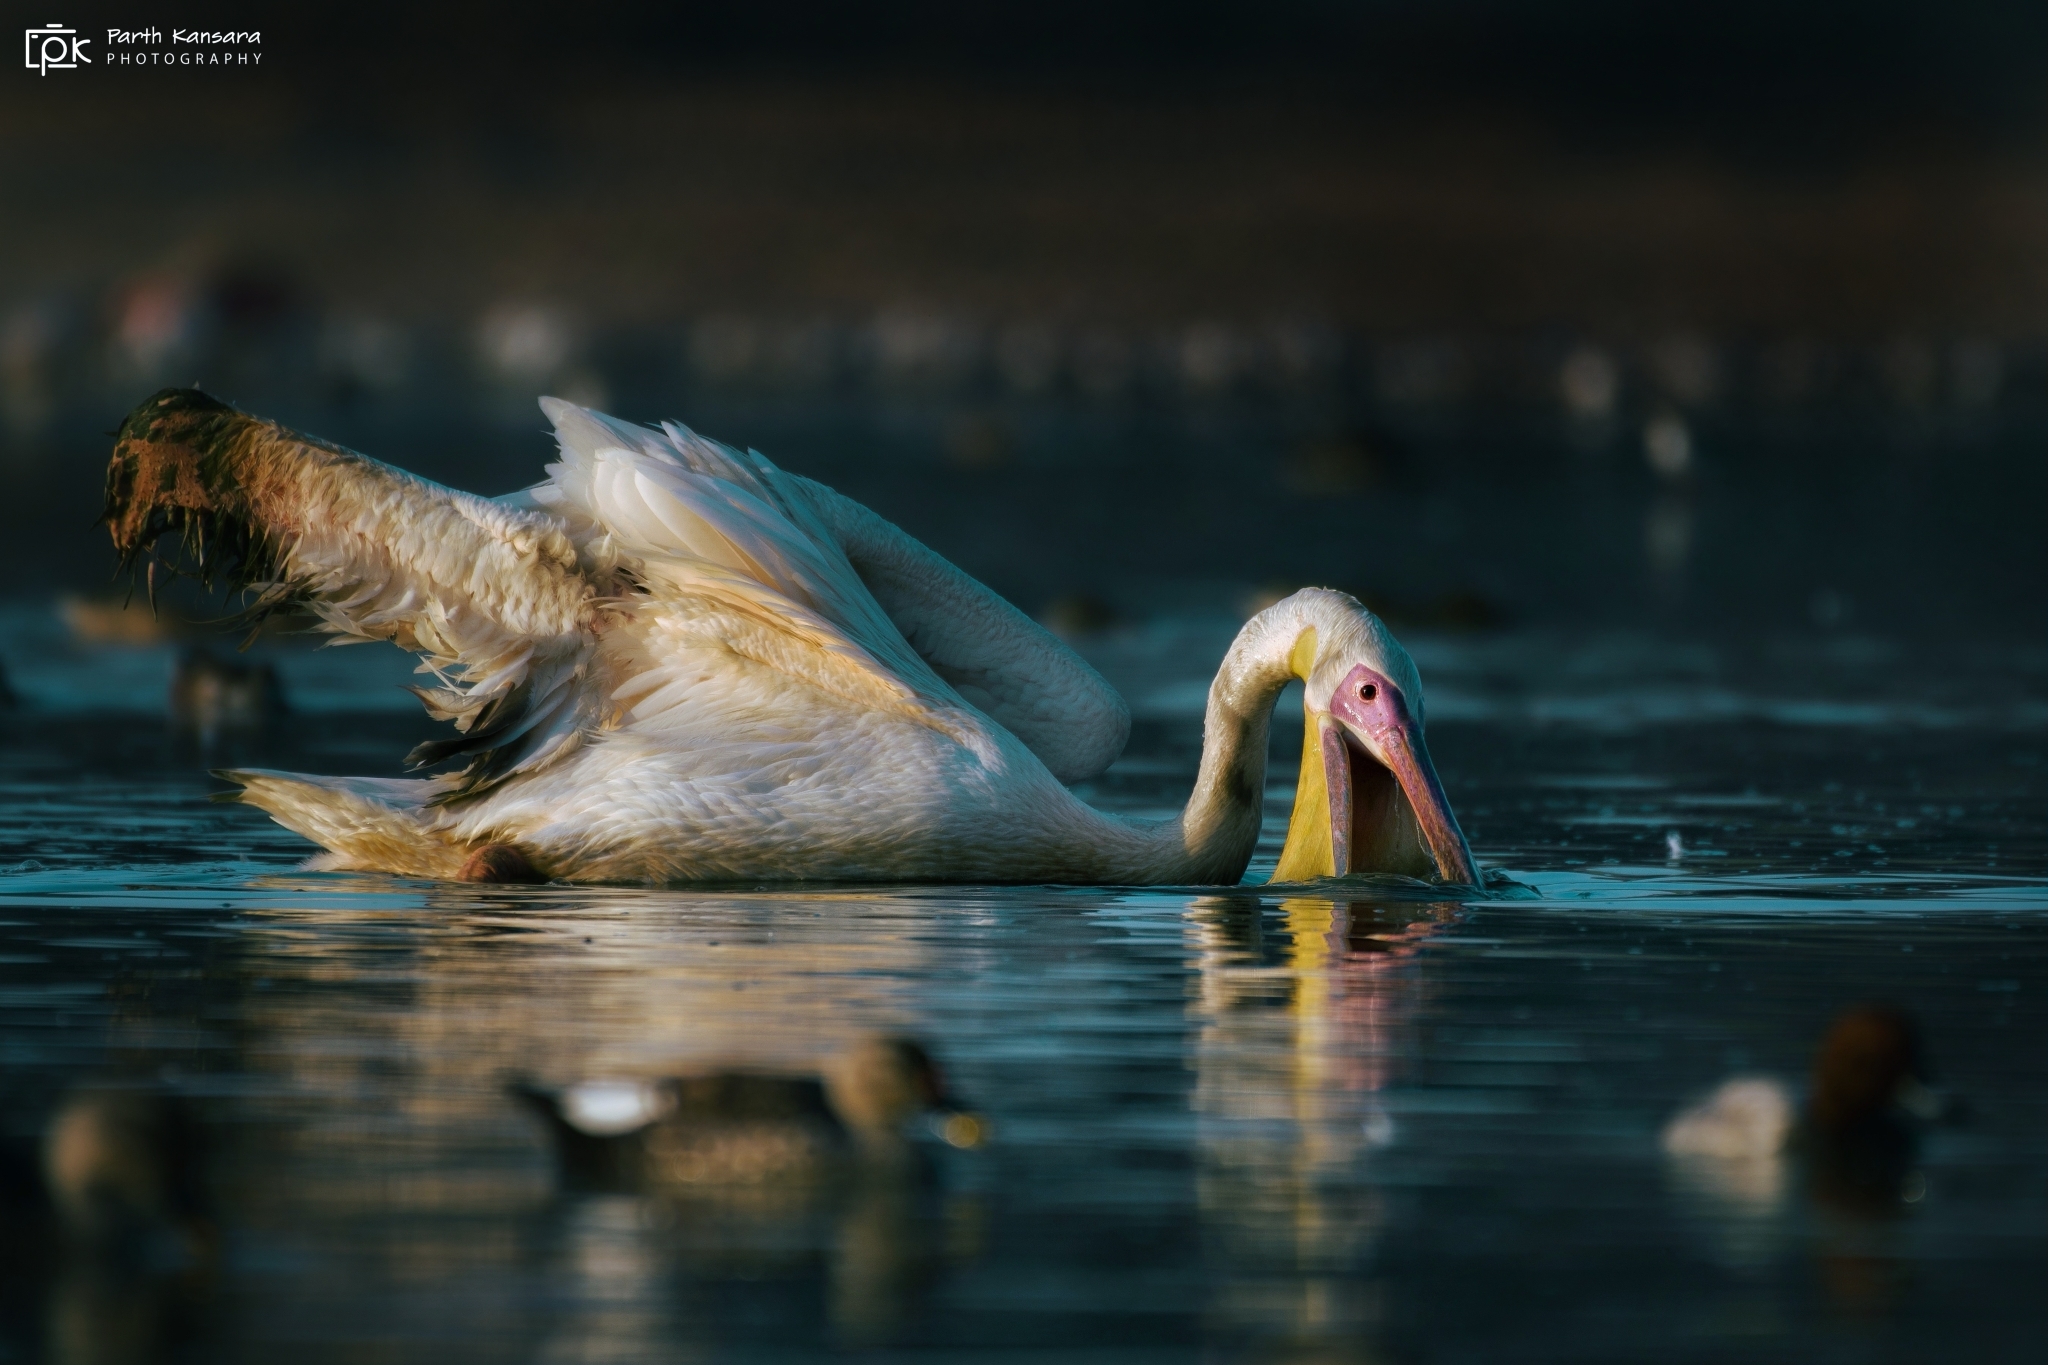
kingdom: Animalia
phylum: Chordata
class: Aves
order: Pelecaniformes
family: Pelecanidae
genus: Pelecanus
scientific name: Pelecanus onocrotalus
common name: Great white pelican
